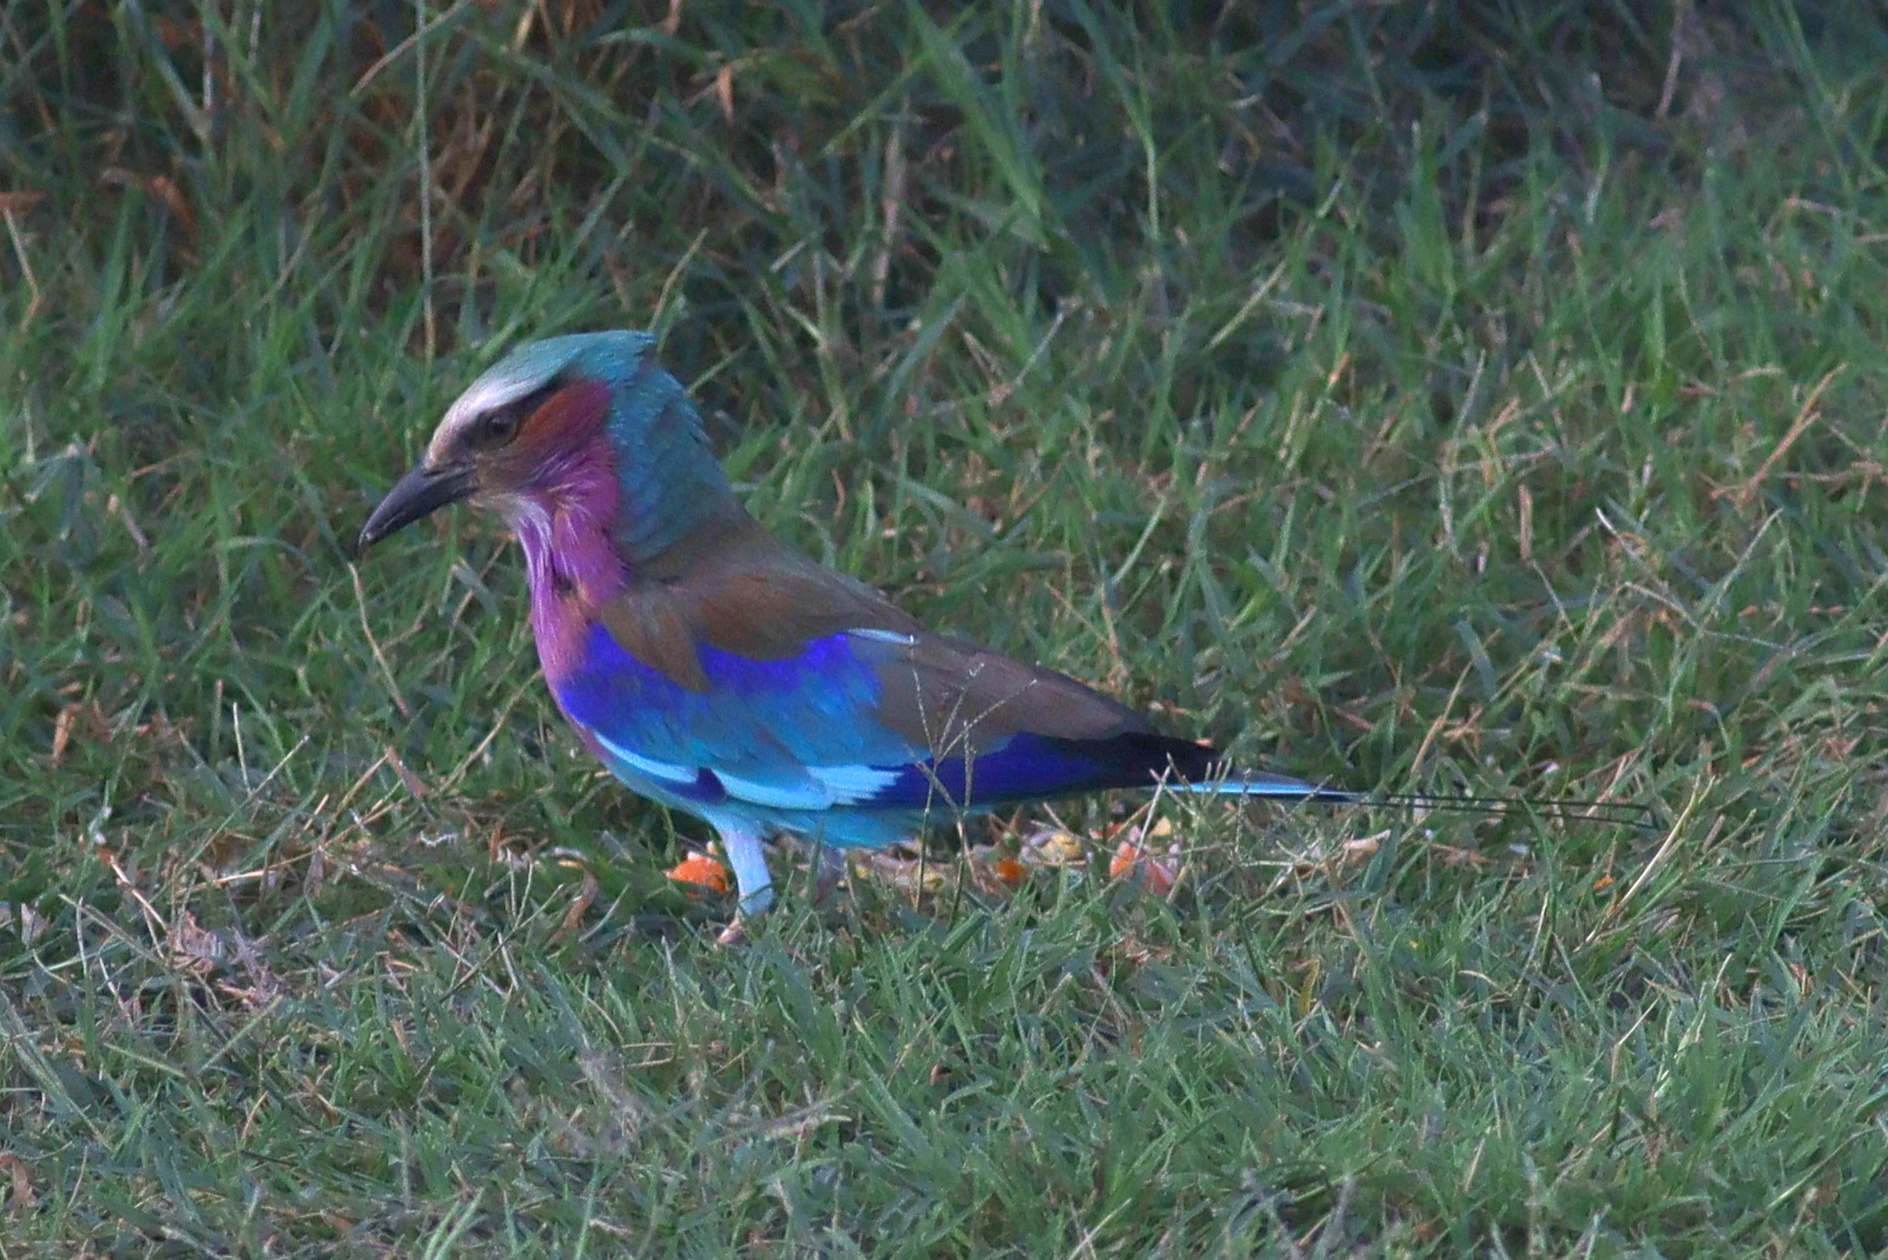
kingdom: Animalia
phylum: Chordata
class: Aves
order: Coraciiformes
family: Coraciidae
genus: Coracias
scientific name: Coracias caudatus
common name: Lilac-breasted roller
